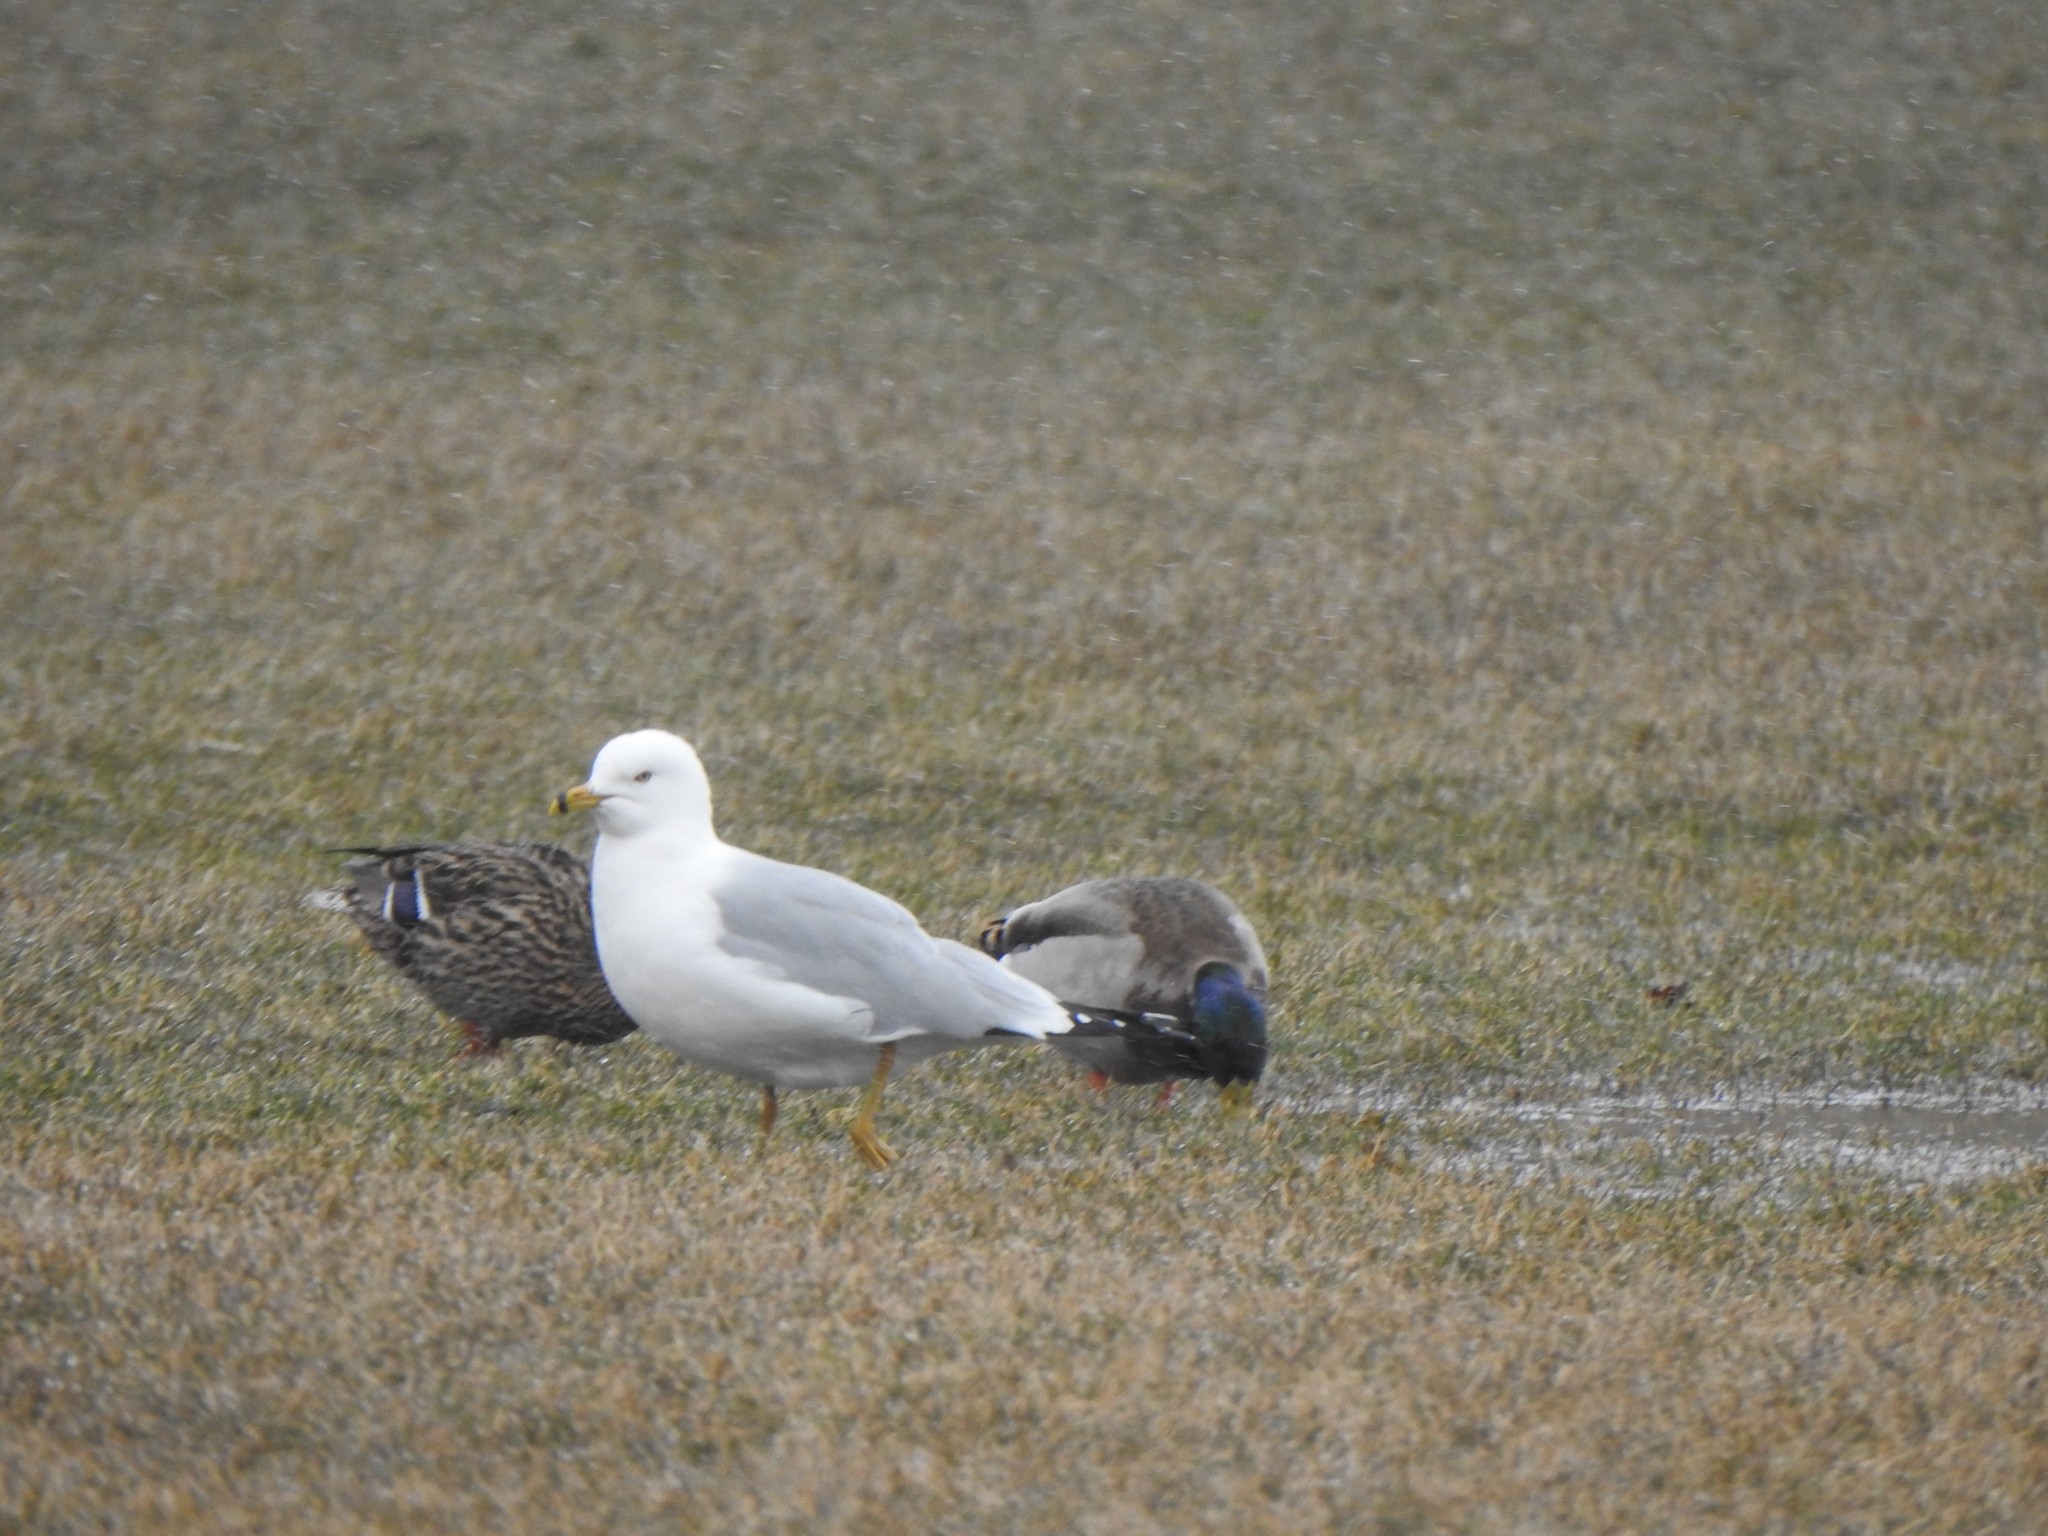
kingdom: Animalia
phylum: Chordata
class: Aves
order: Charadriiformes
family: Laridae
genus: Larus
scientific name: Larus delawarensis
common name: Ring-billed gull
